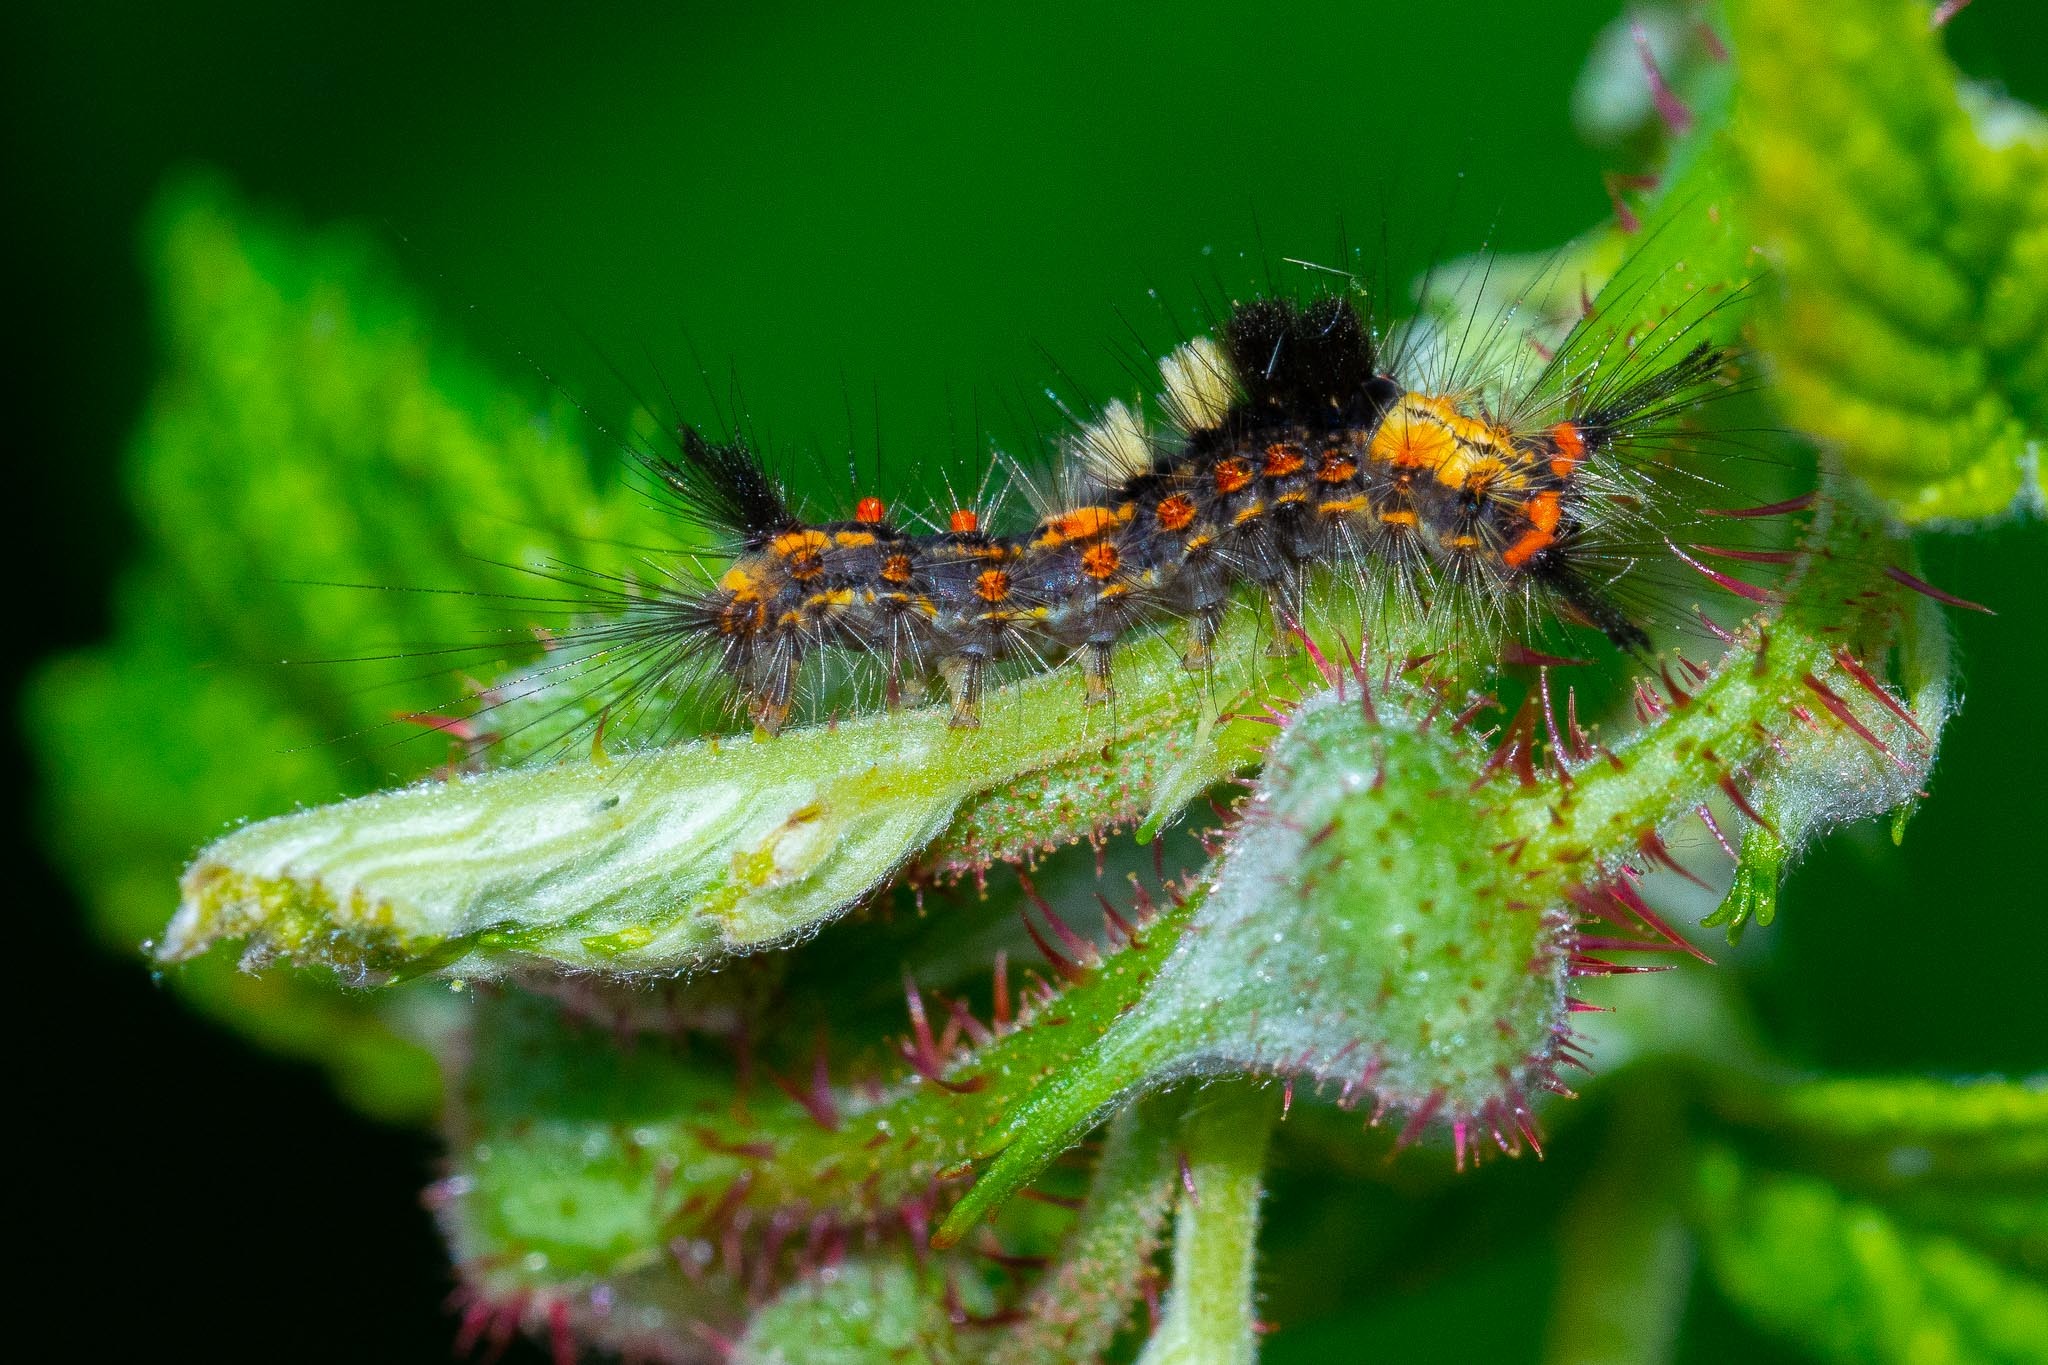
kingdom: Animalia
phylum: Arthropoda
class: Insecta
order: Lepidoptera
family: Erebidae
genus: Orgyia
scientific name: Orgyia antiqua
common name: Vapourer
